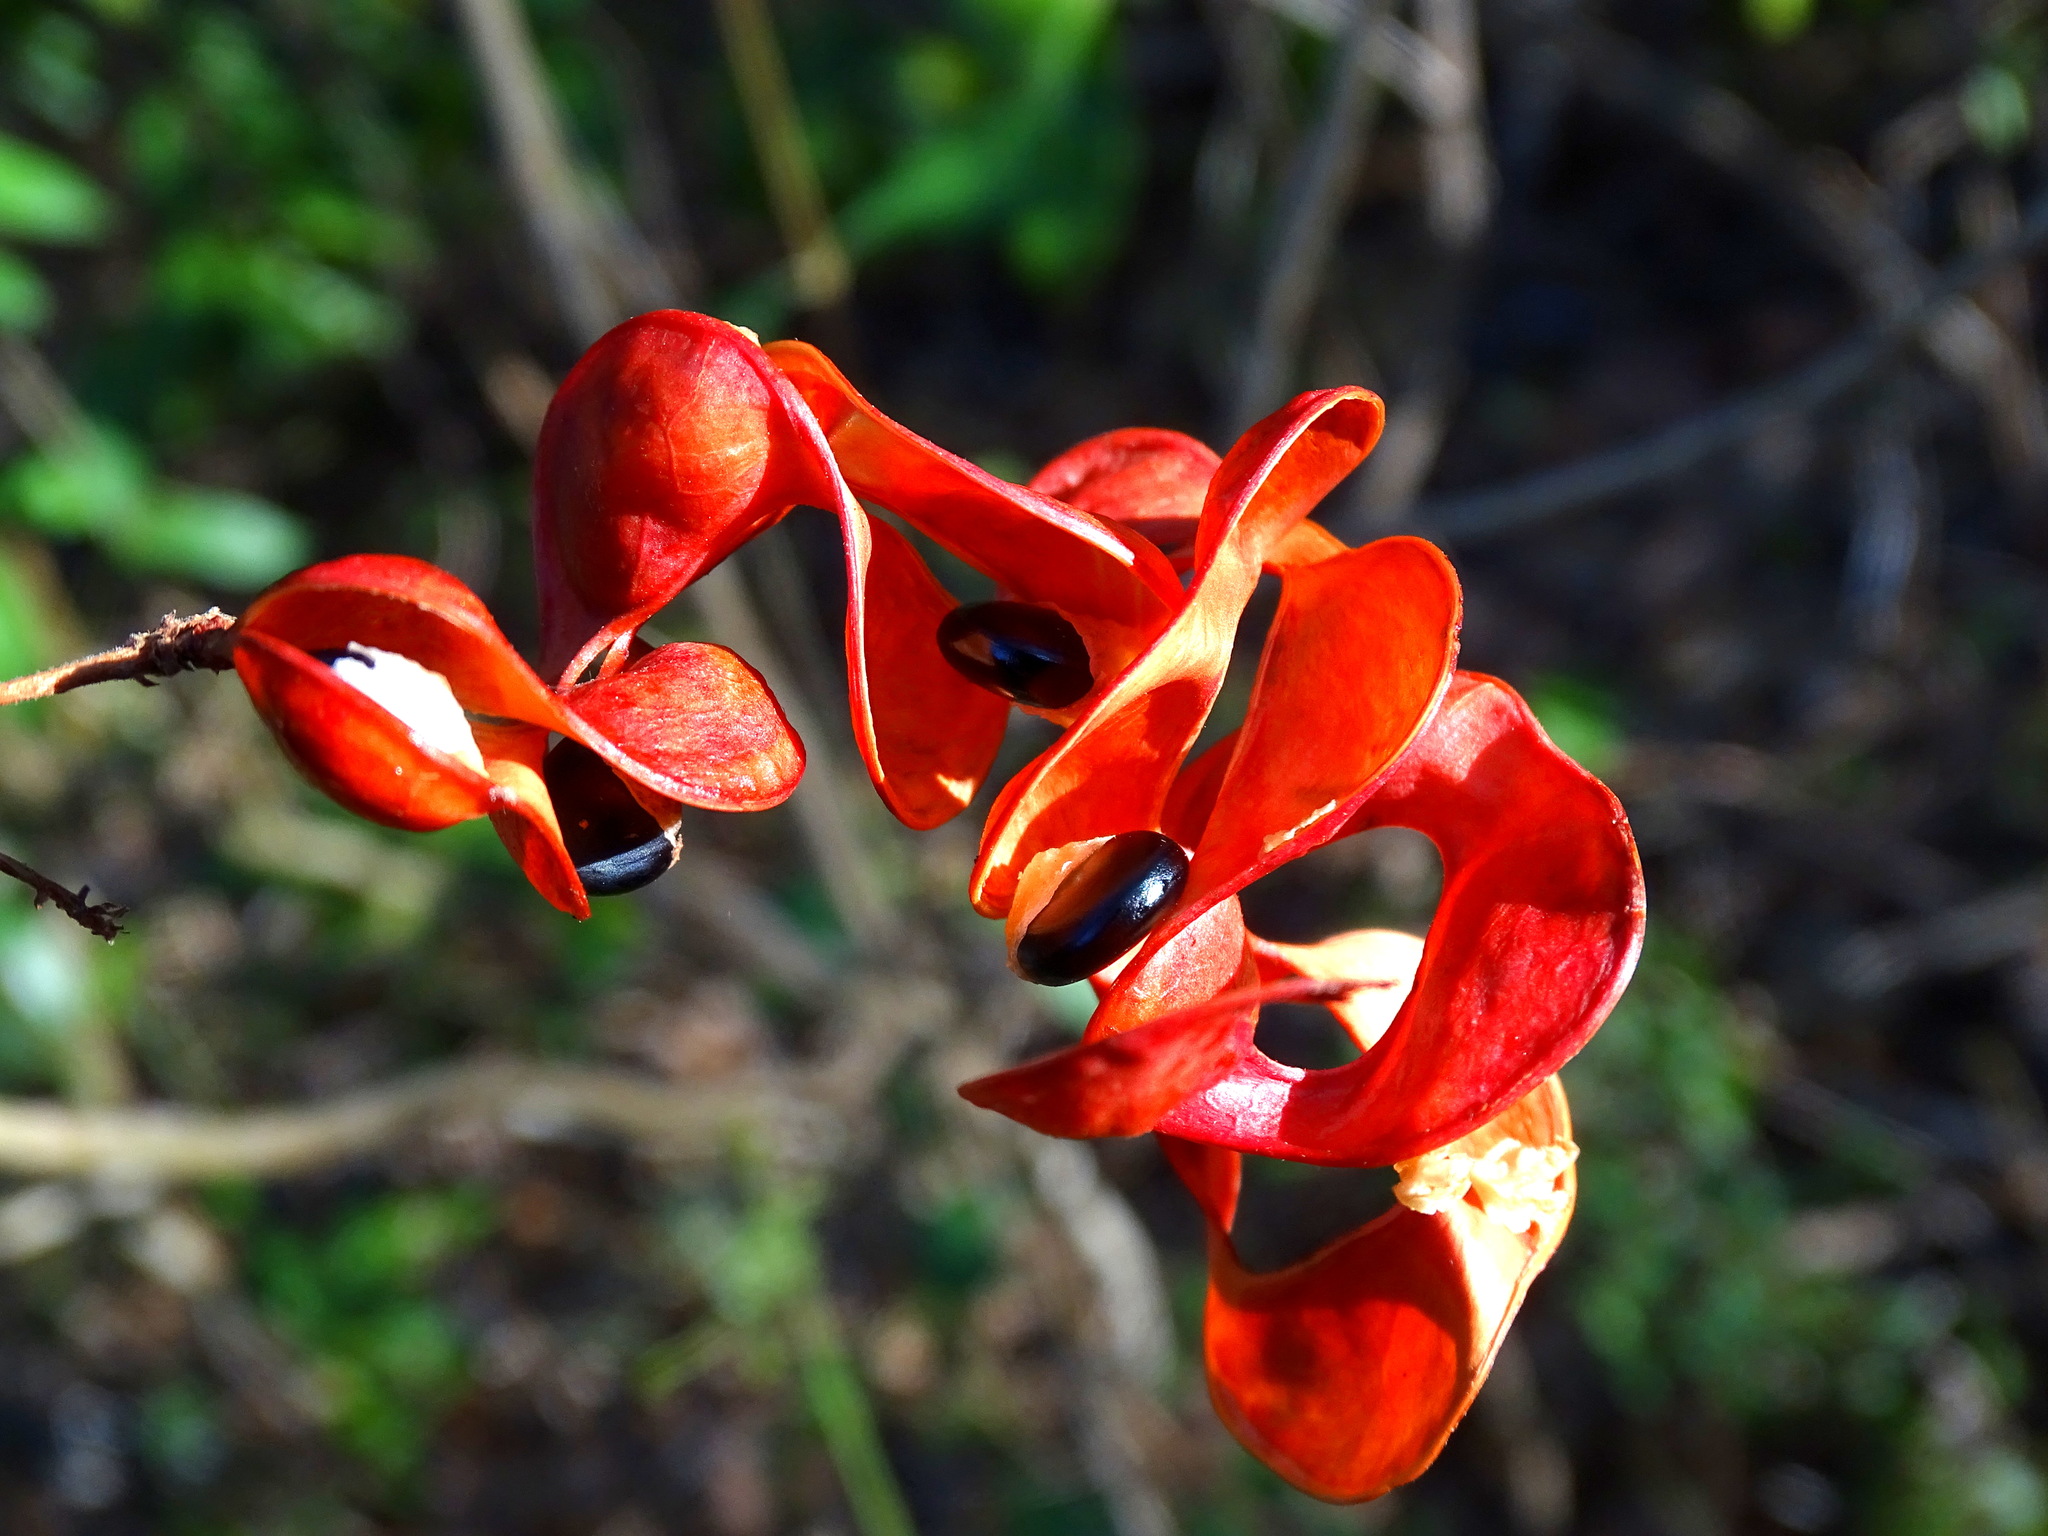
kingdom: Plantae
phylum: Tracheophyta
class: Magnoliopsida
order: Fabales
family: Fabaceae
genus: Pithecellobium
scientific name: Pithecellobium unguis-cati
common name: Cat's-claw
